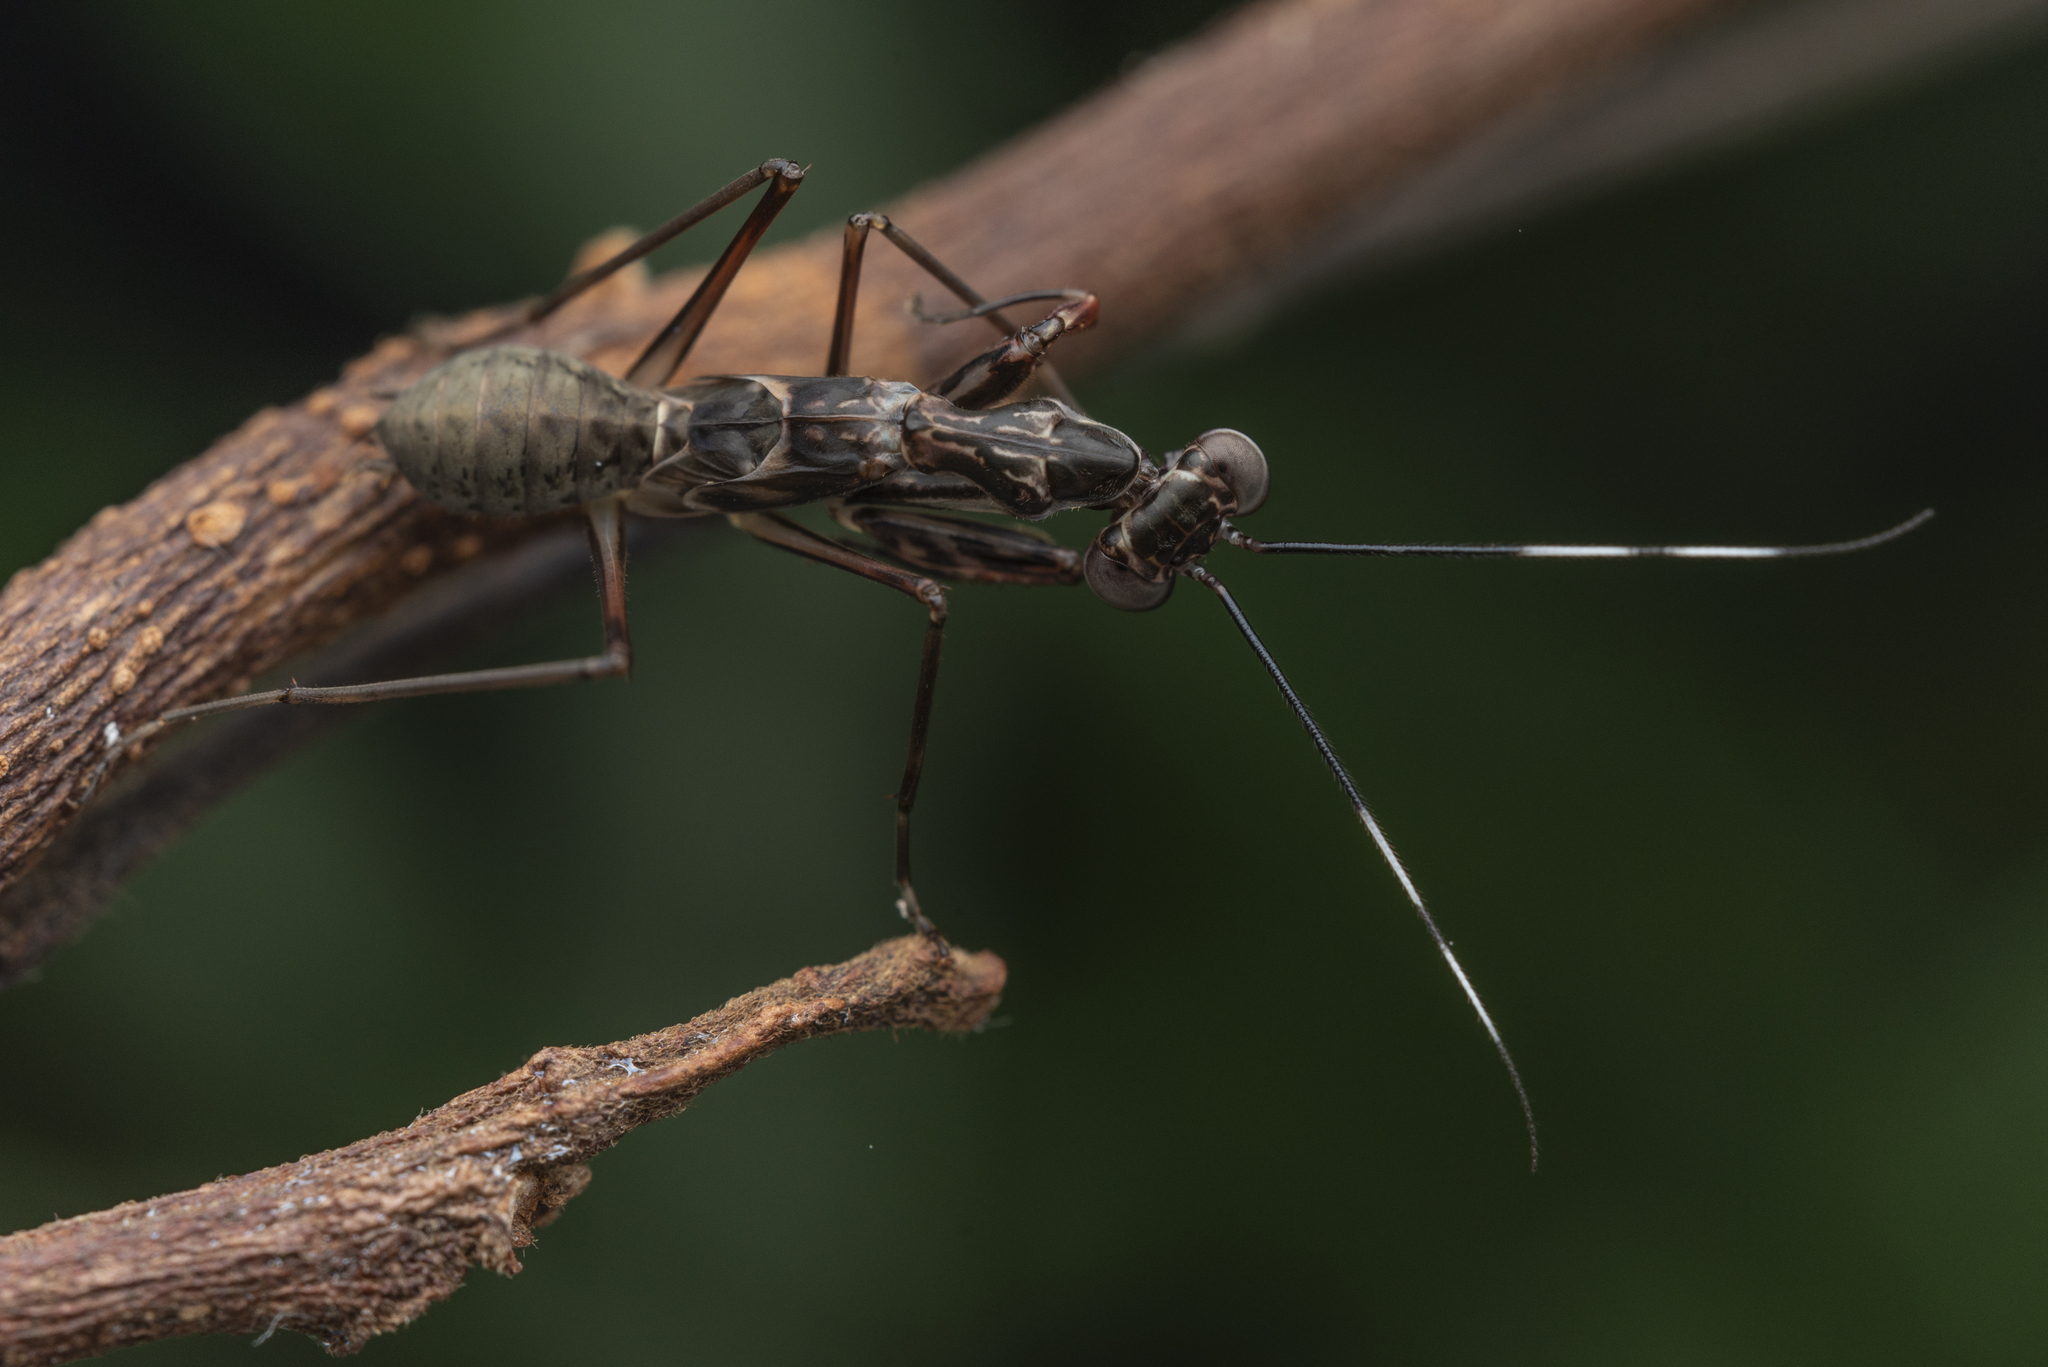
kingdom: Animalia
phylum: Arthropoda
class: Insecta
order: Mantodea
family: Gonypetidae
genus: Spilomantis
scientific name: Spilomantis occipitalis
